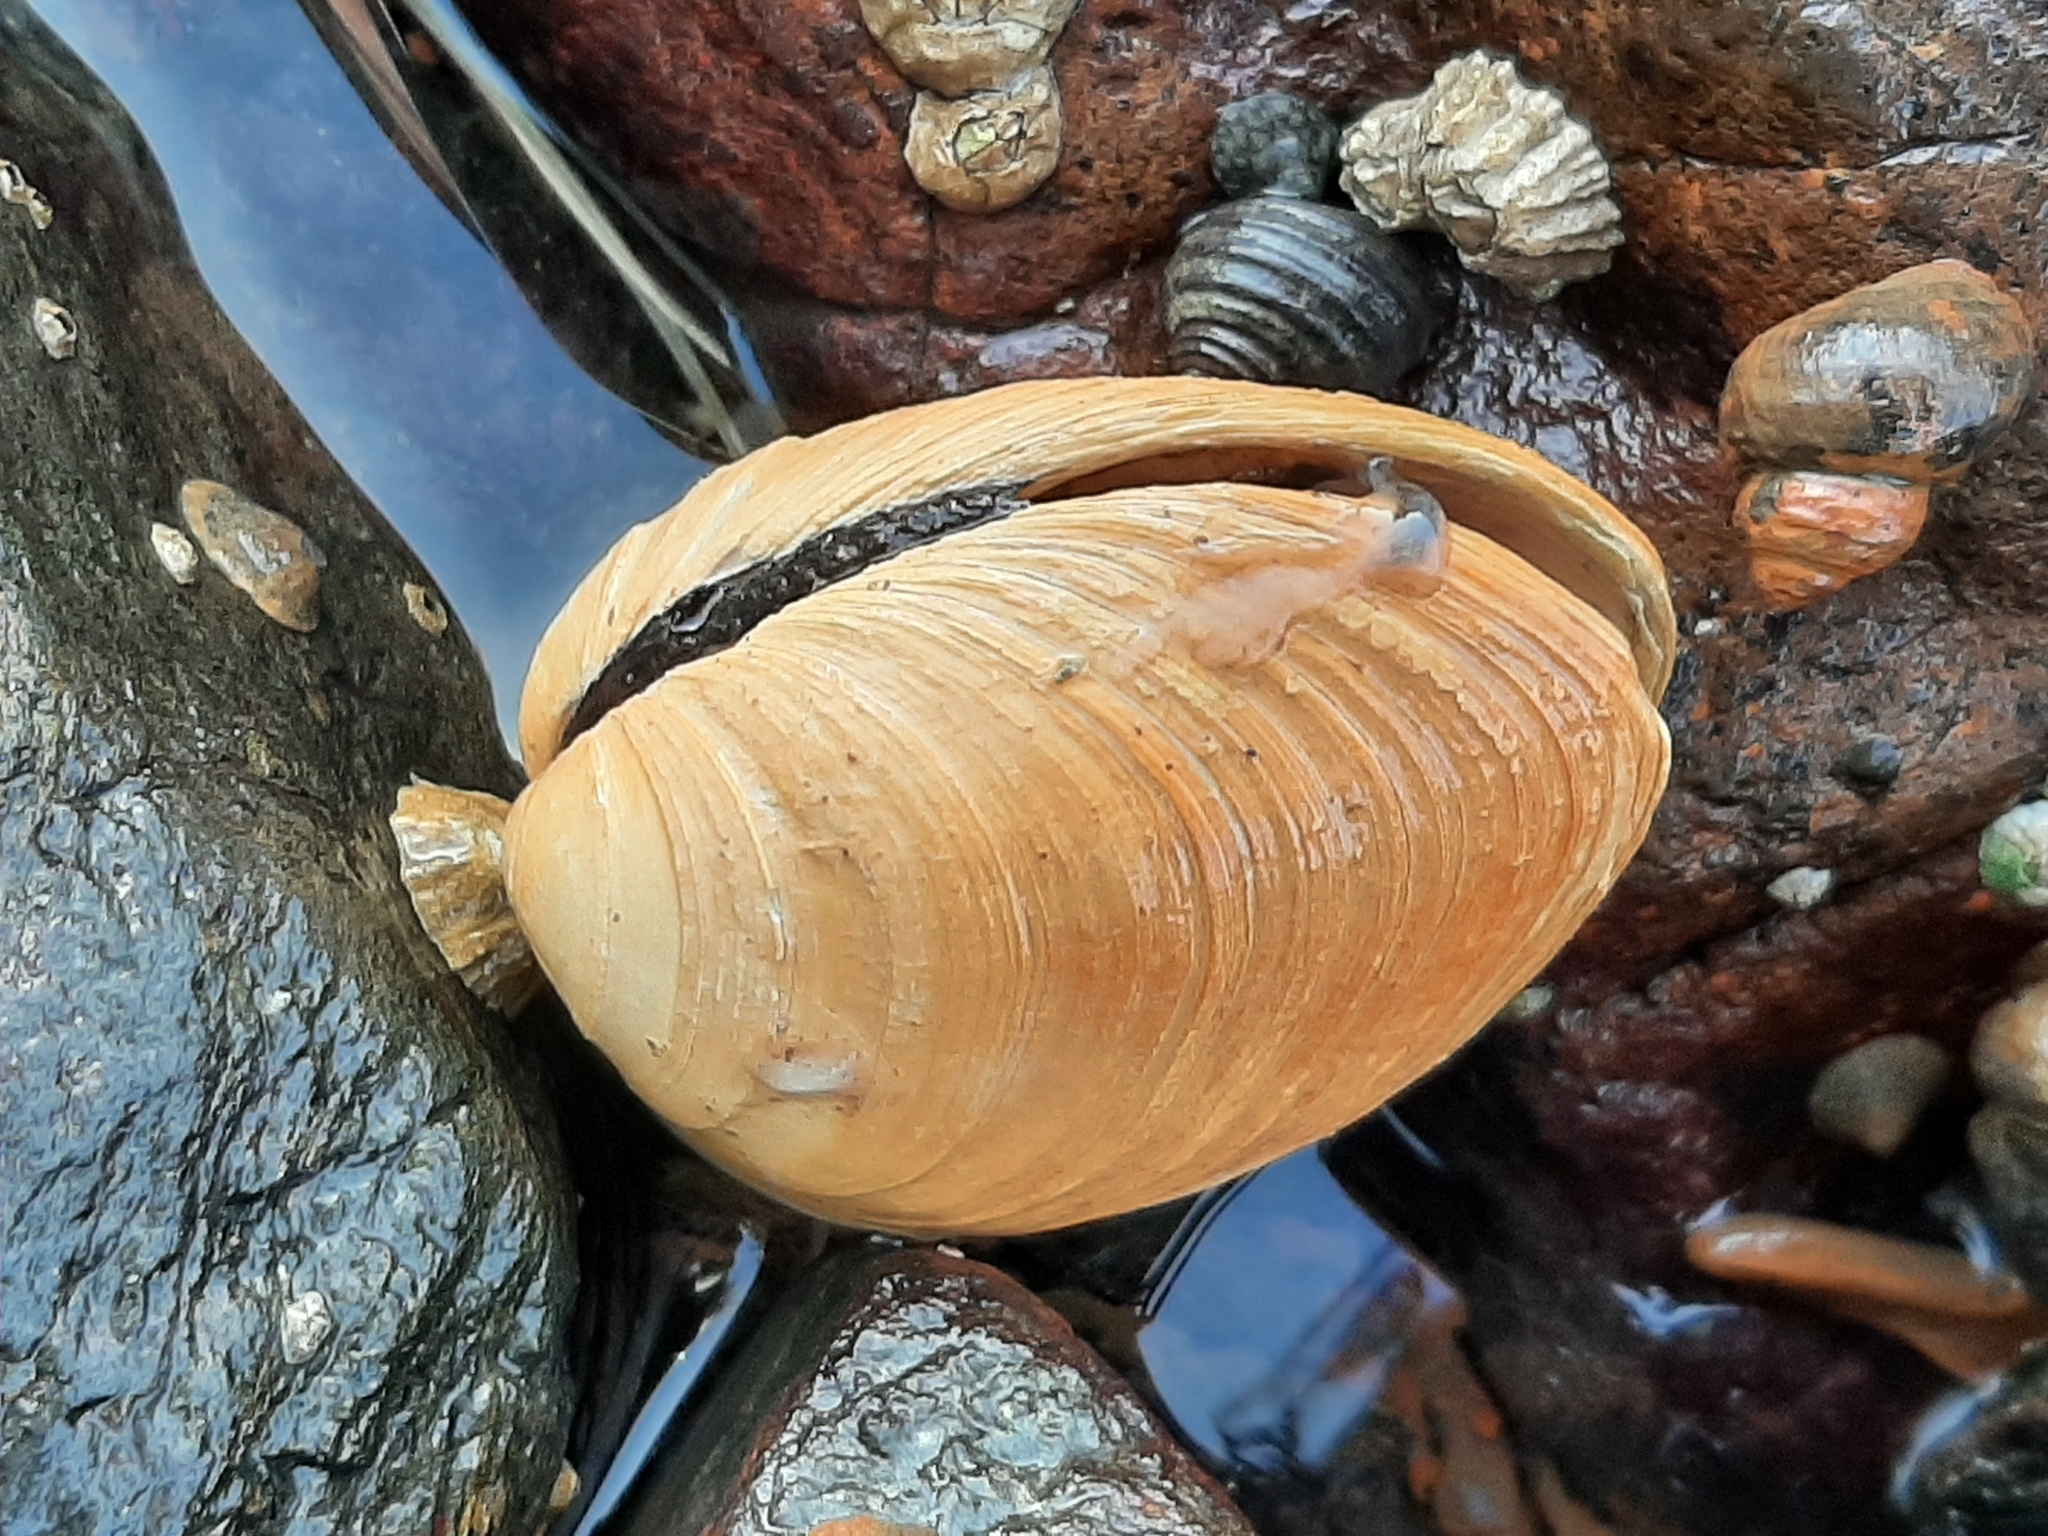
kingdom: Animalia
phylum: Mollusca
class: Bivalvia
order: Venerida
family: Veneridae
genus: Saxidomus
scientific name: Saxidomus gigantea
